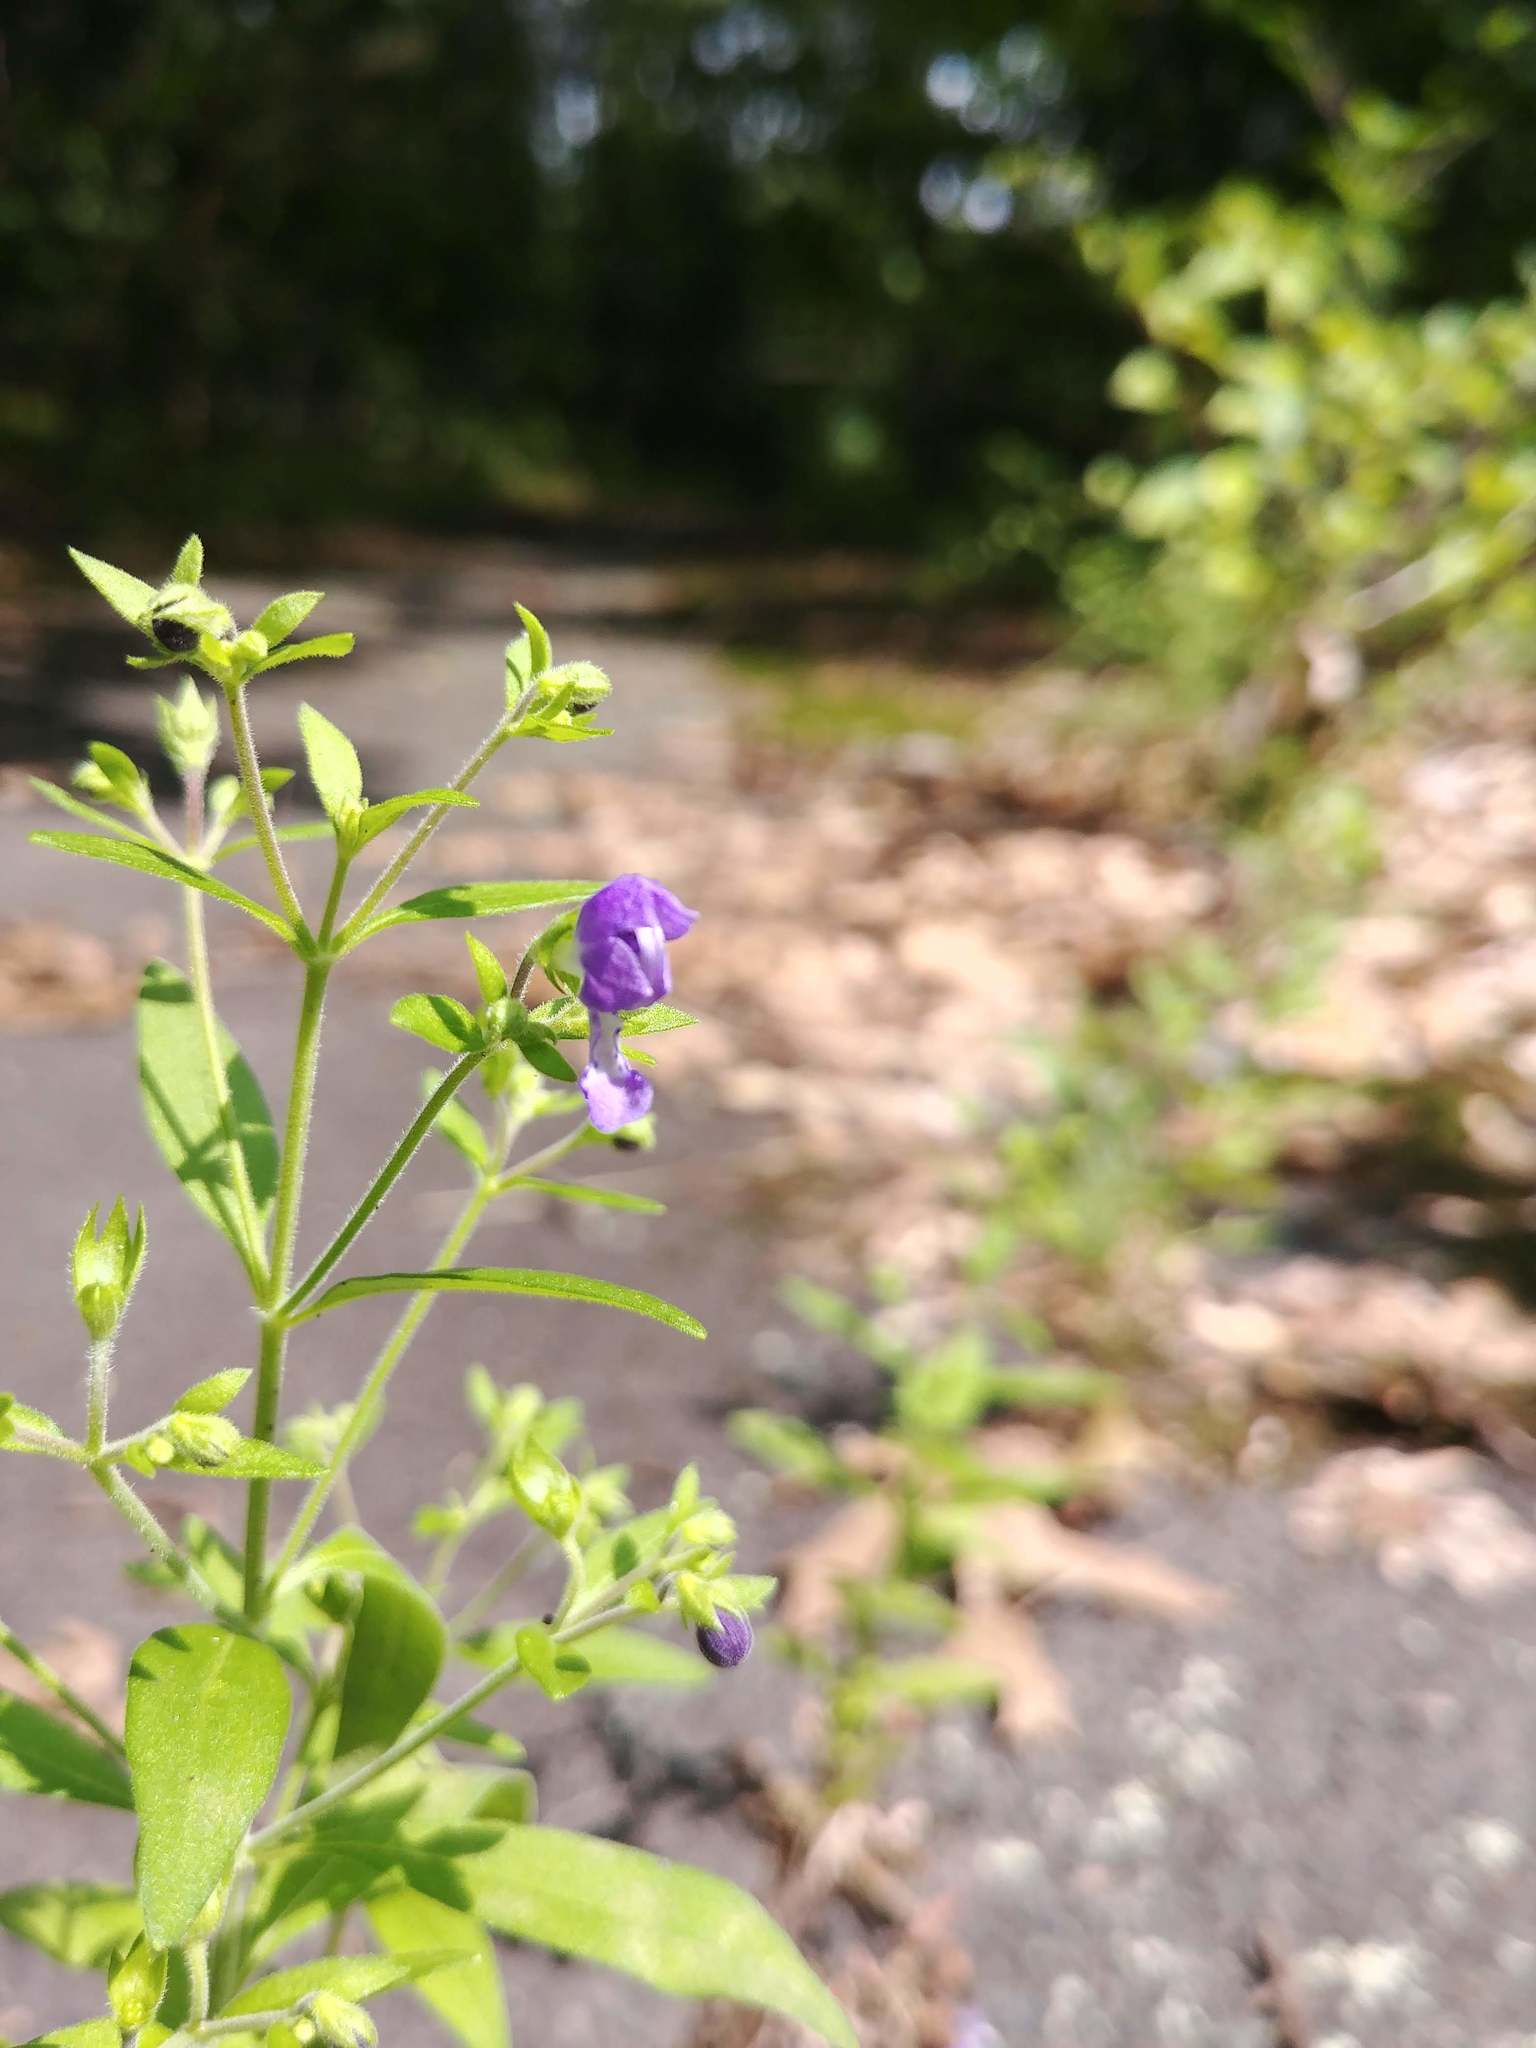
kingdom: Plantae
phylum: Tracheophyta
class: Magnoliopsida
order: Lamiales
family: Lamiaceae
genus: Trichostema
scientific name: Trichostema dichotomum
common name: Bastard pennyroyal
